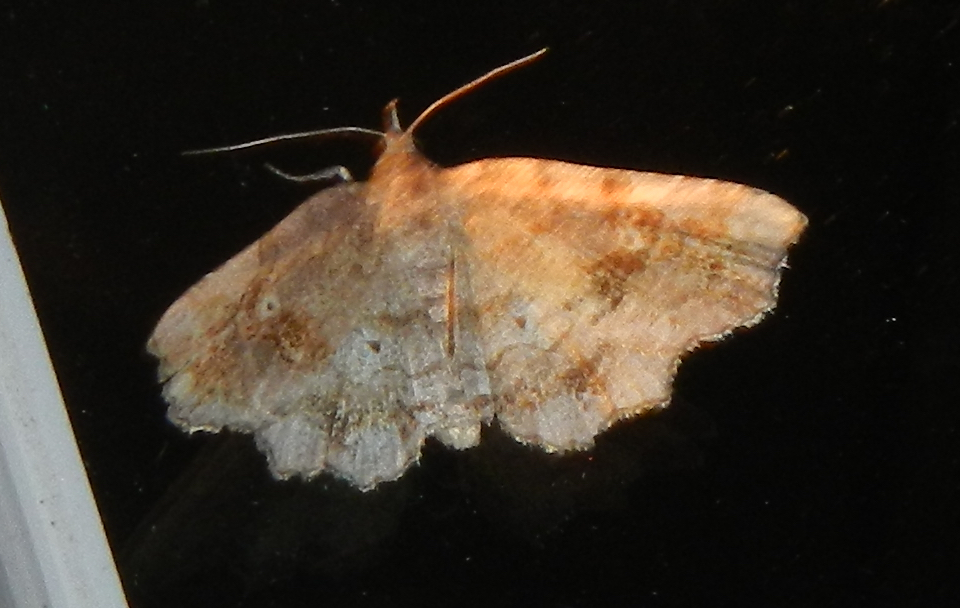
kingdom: Animalia
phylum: Arthropoda
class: Insecta
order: Lepidoptera
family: Erebidae
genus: Pangrapta
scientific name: Pangrapta decoralis
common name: Decorated owlet
